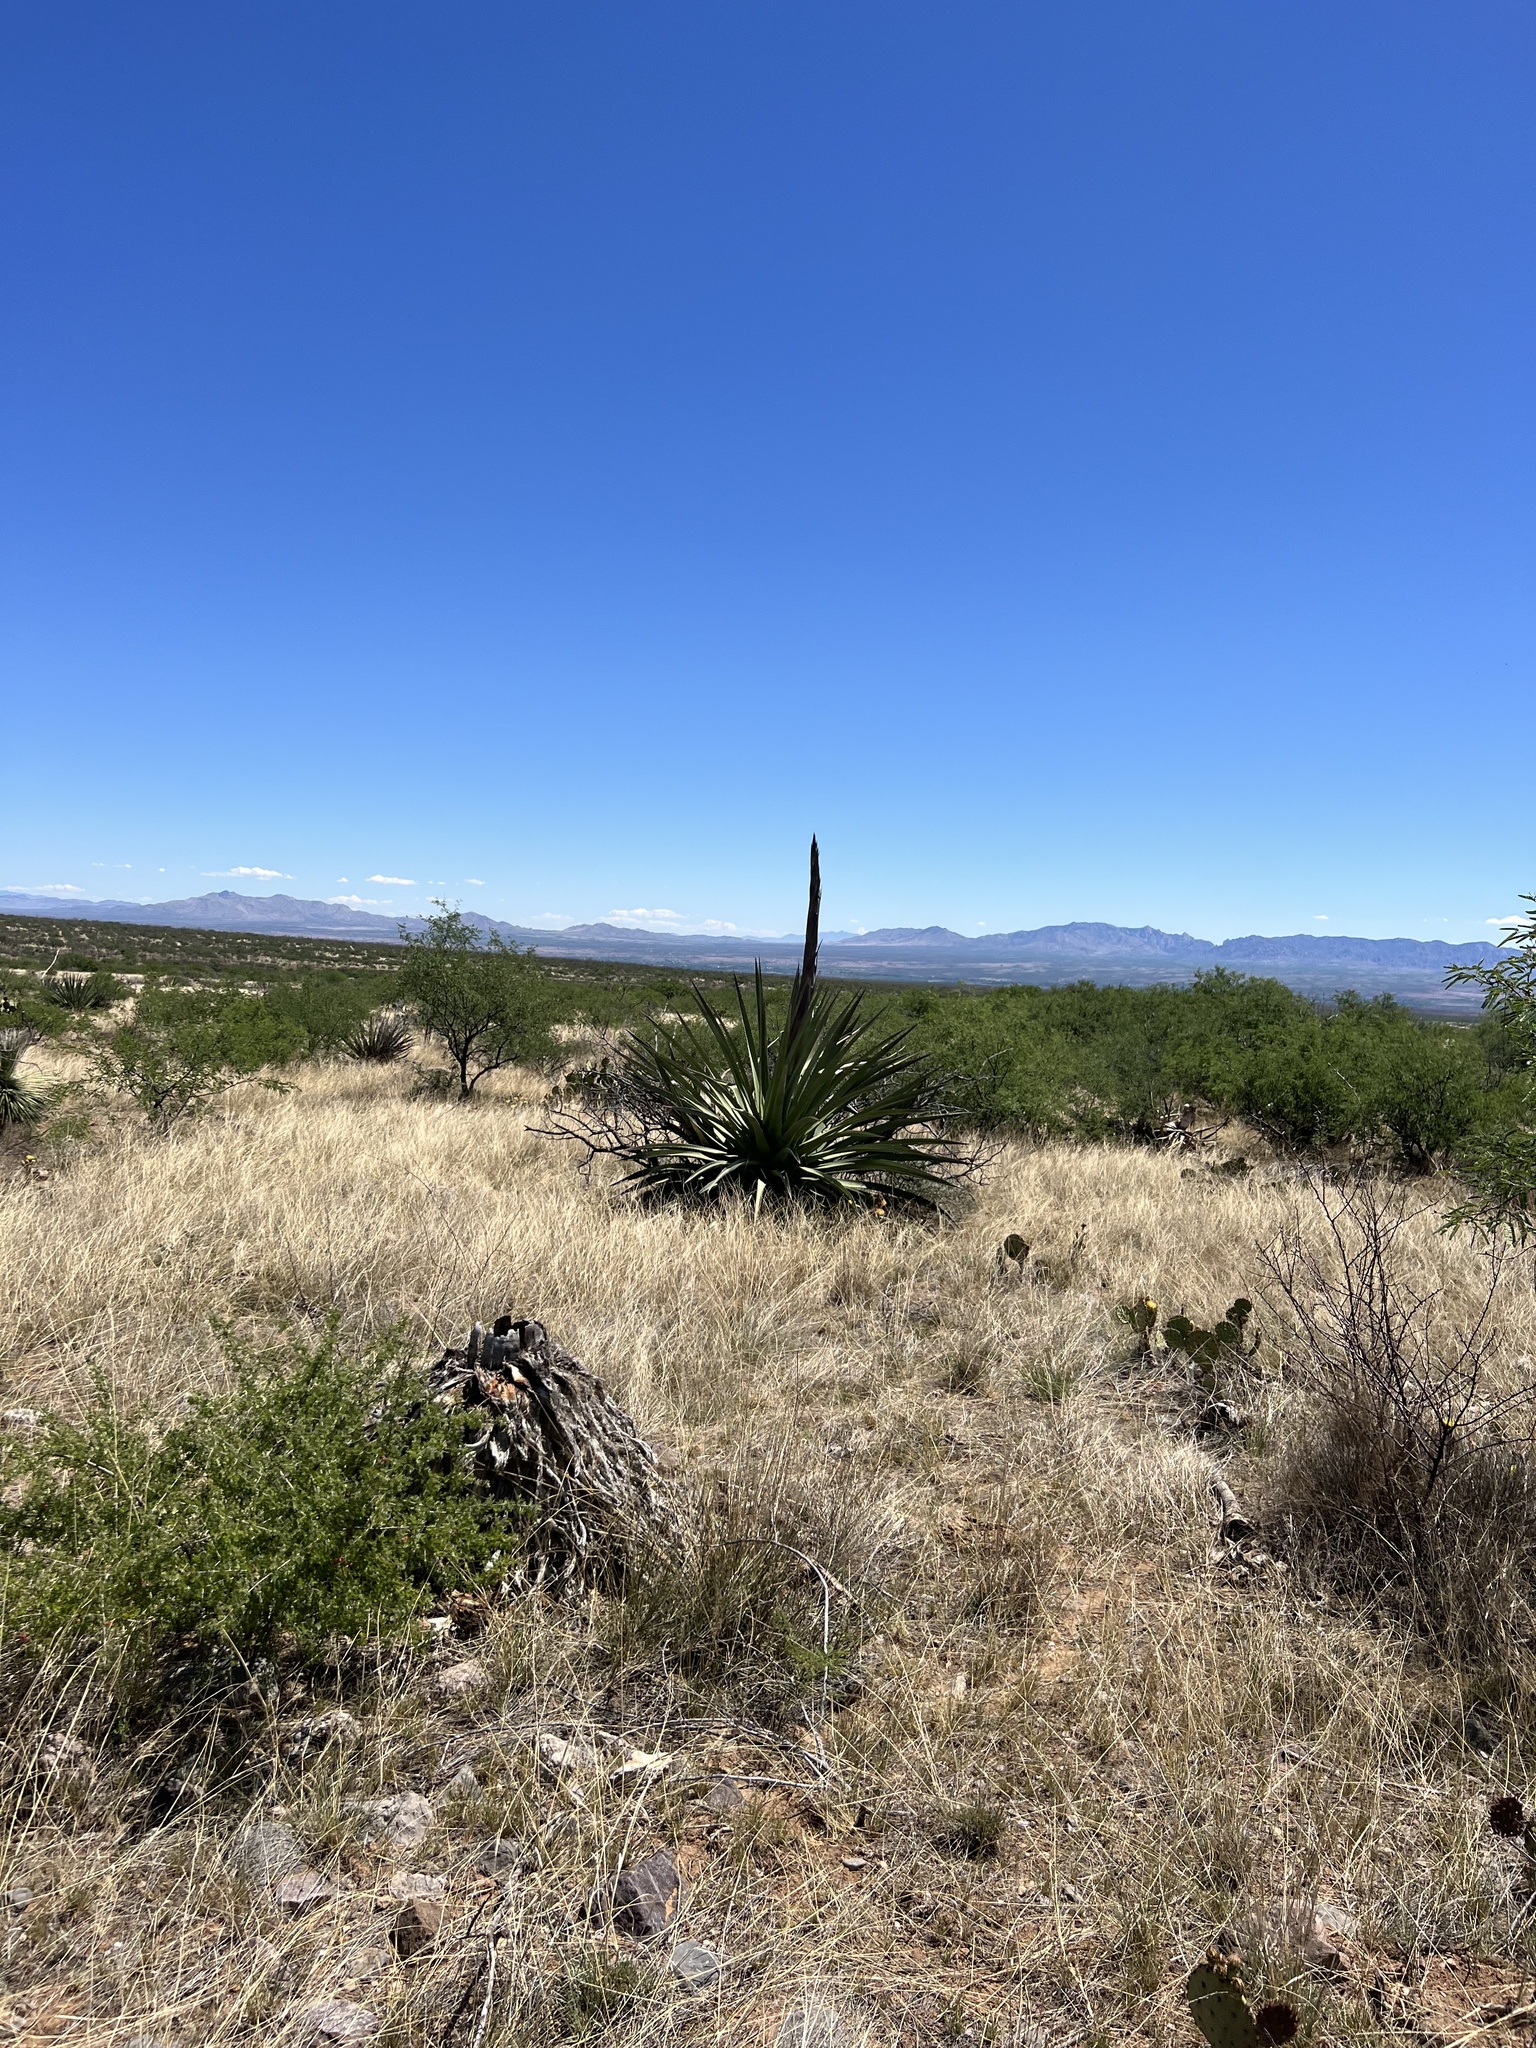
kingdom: Plantae
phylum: Tracheophyta
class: Liliopsida
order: Asparagales
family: Asparagaceae
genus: Agave
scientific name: Agave palmeri
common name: Palmer agave
